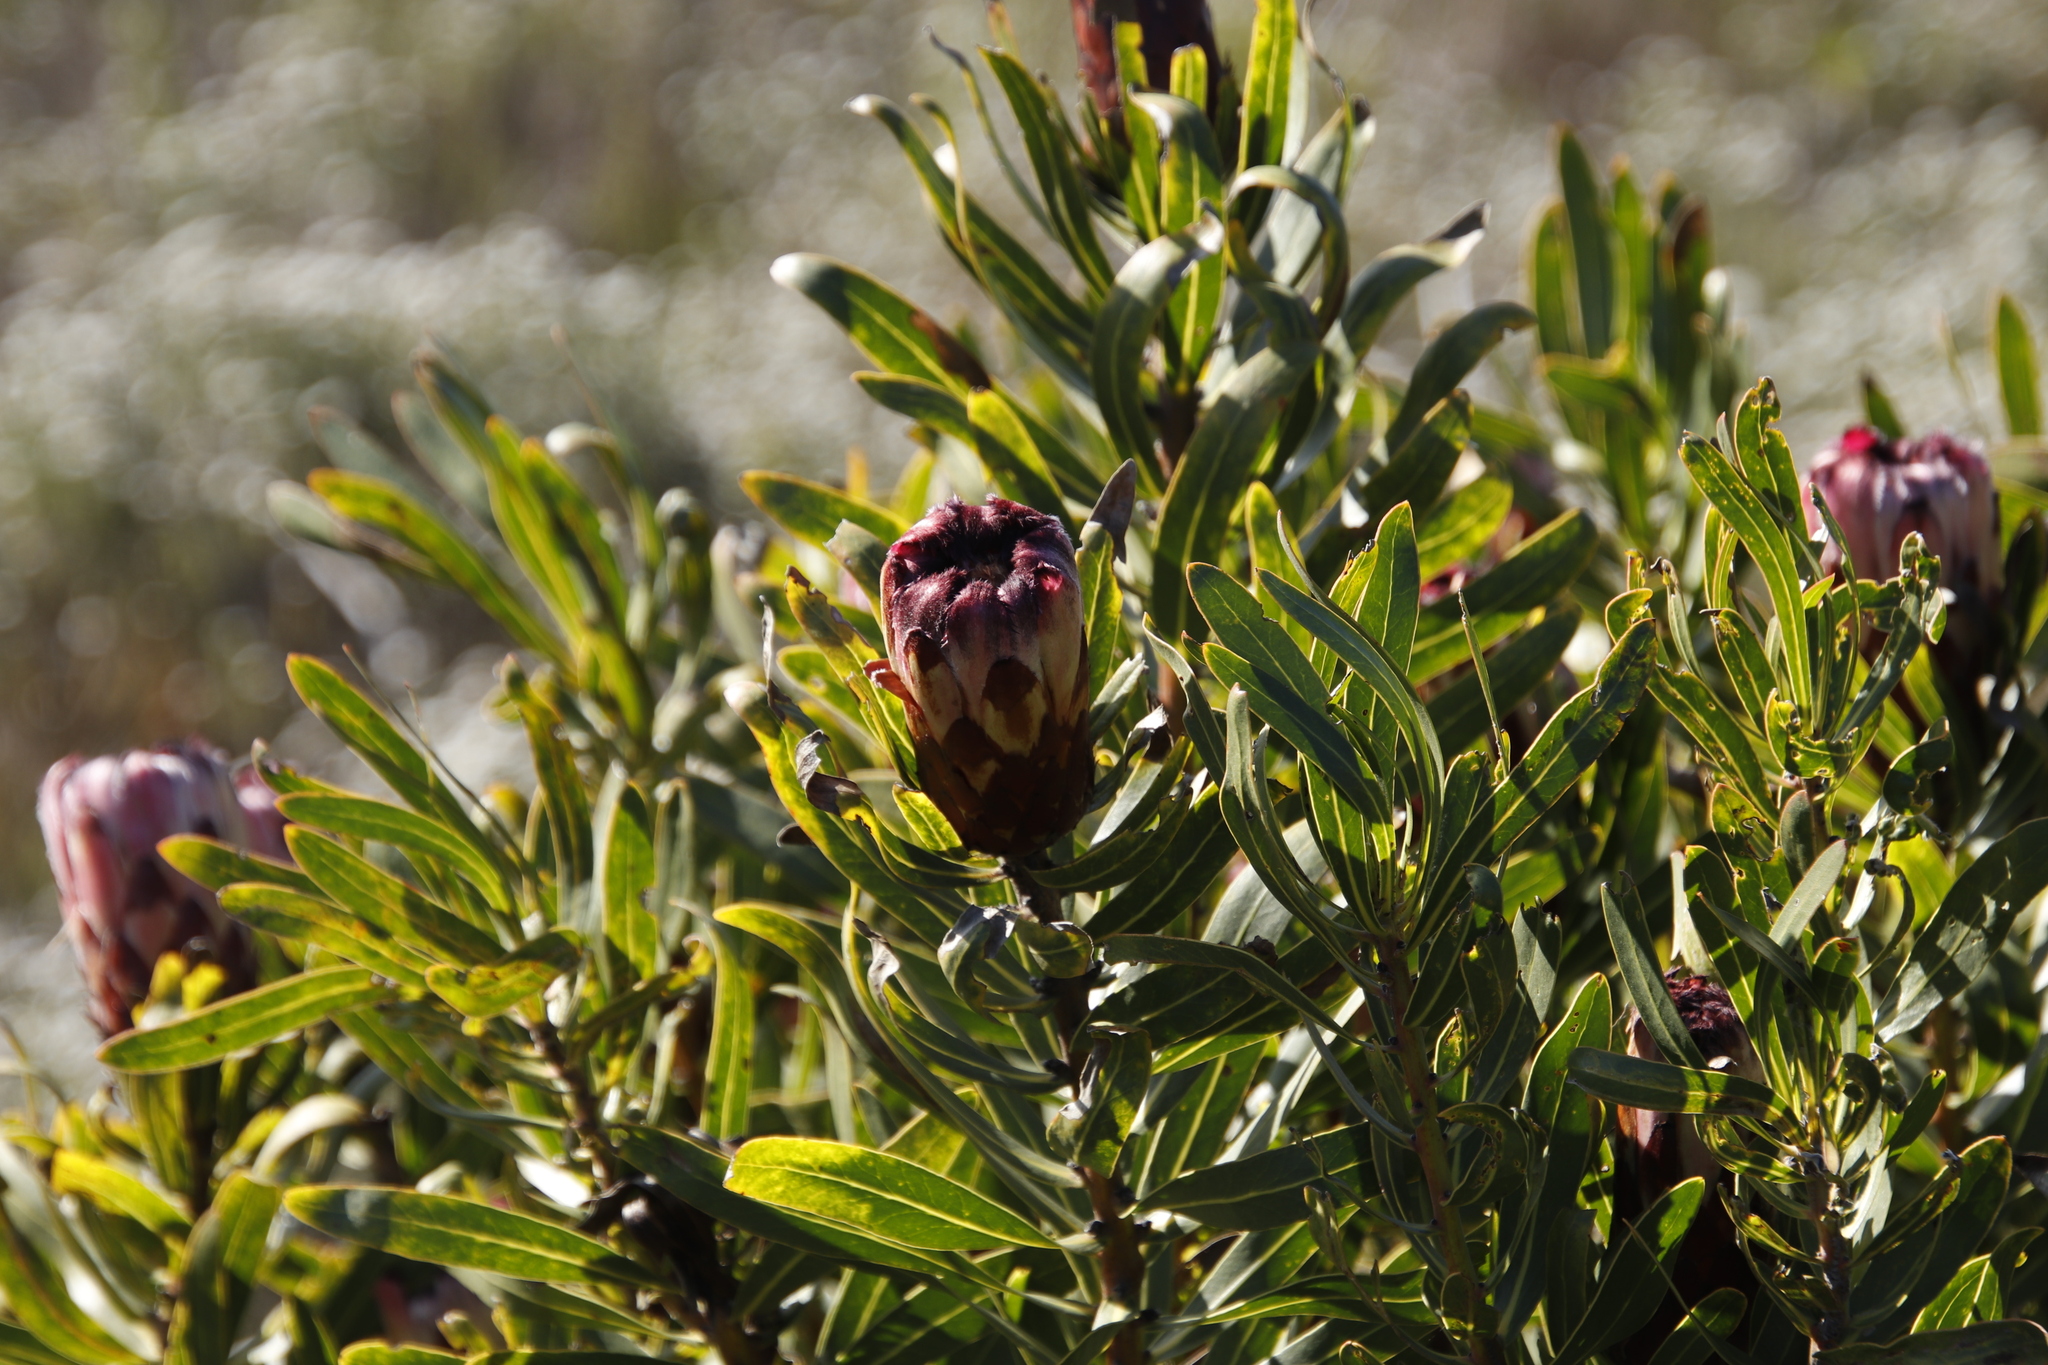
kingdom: Plantae
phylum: Tracheophyta
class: Magnoliopsida
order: Proteales
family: Proteaceae
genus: Protea
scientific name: Protea
